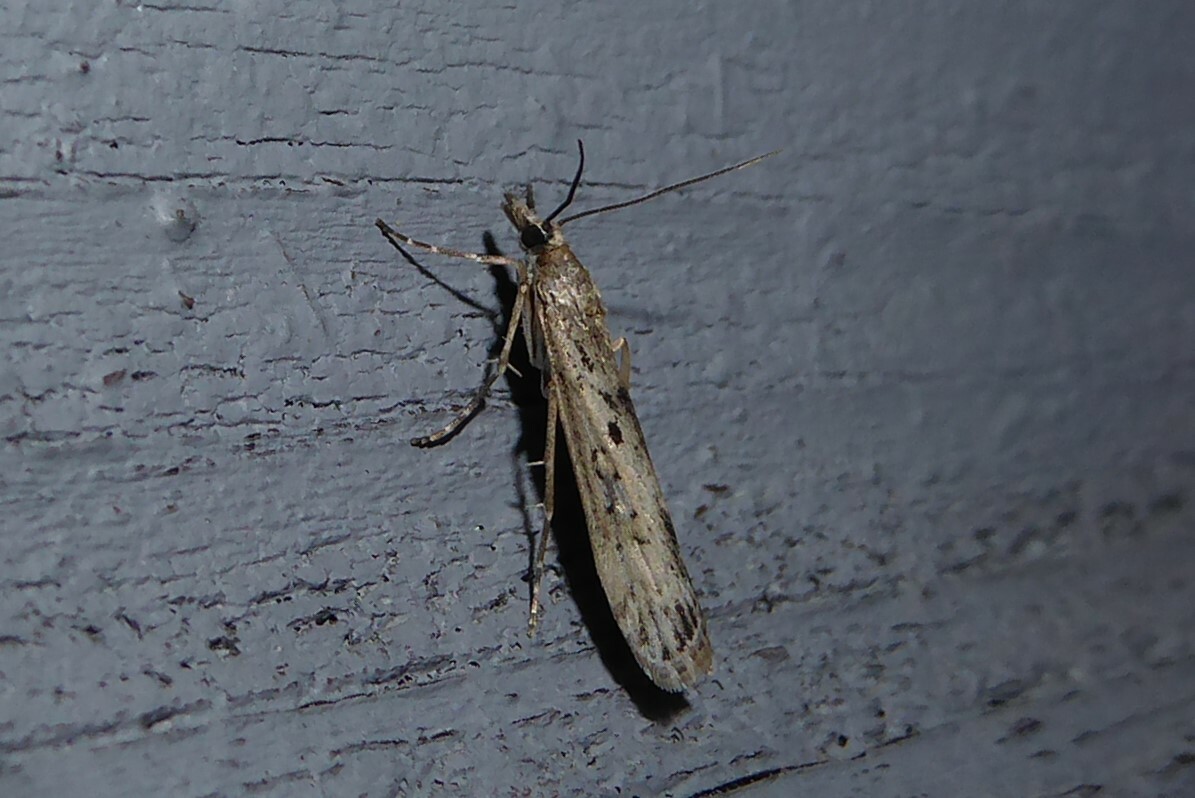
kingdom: Animalia
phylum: Arthropoda
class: Insecta
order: Lepidoptera
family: Crambidae
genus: Eudonia
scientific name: Eudonia leptalea
